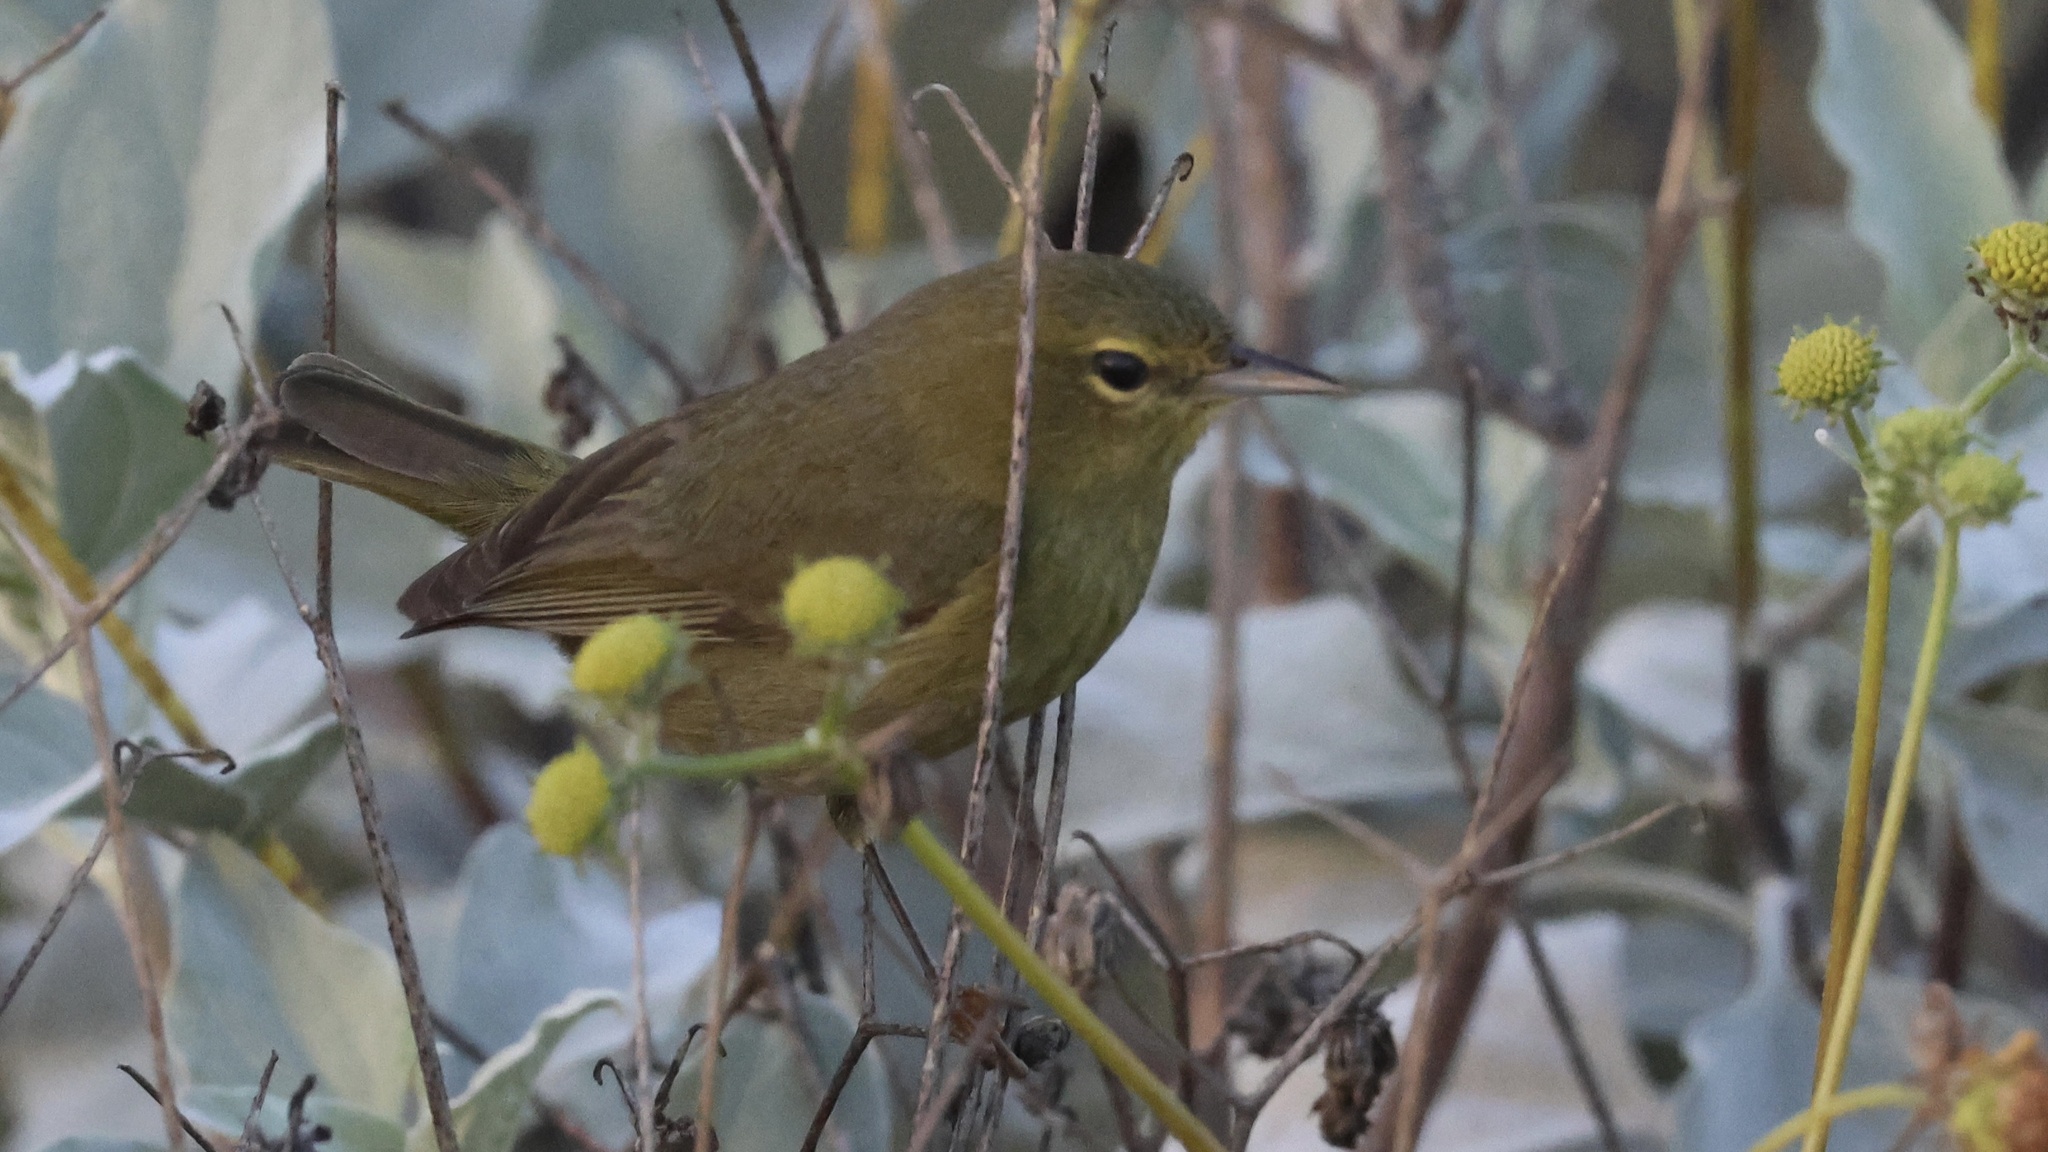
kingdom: Animalia
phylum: Chordata
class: Aves
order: Passeriformes
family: Parulidae
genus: Leiothlypis
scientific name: Leiothlypis celata
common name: Orange-crowned warbler
